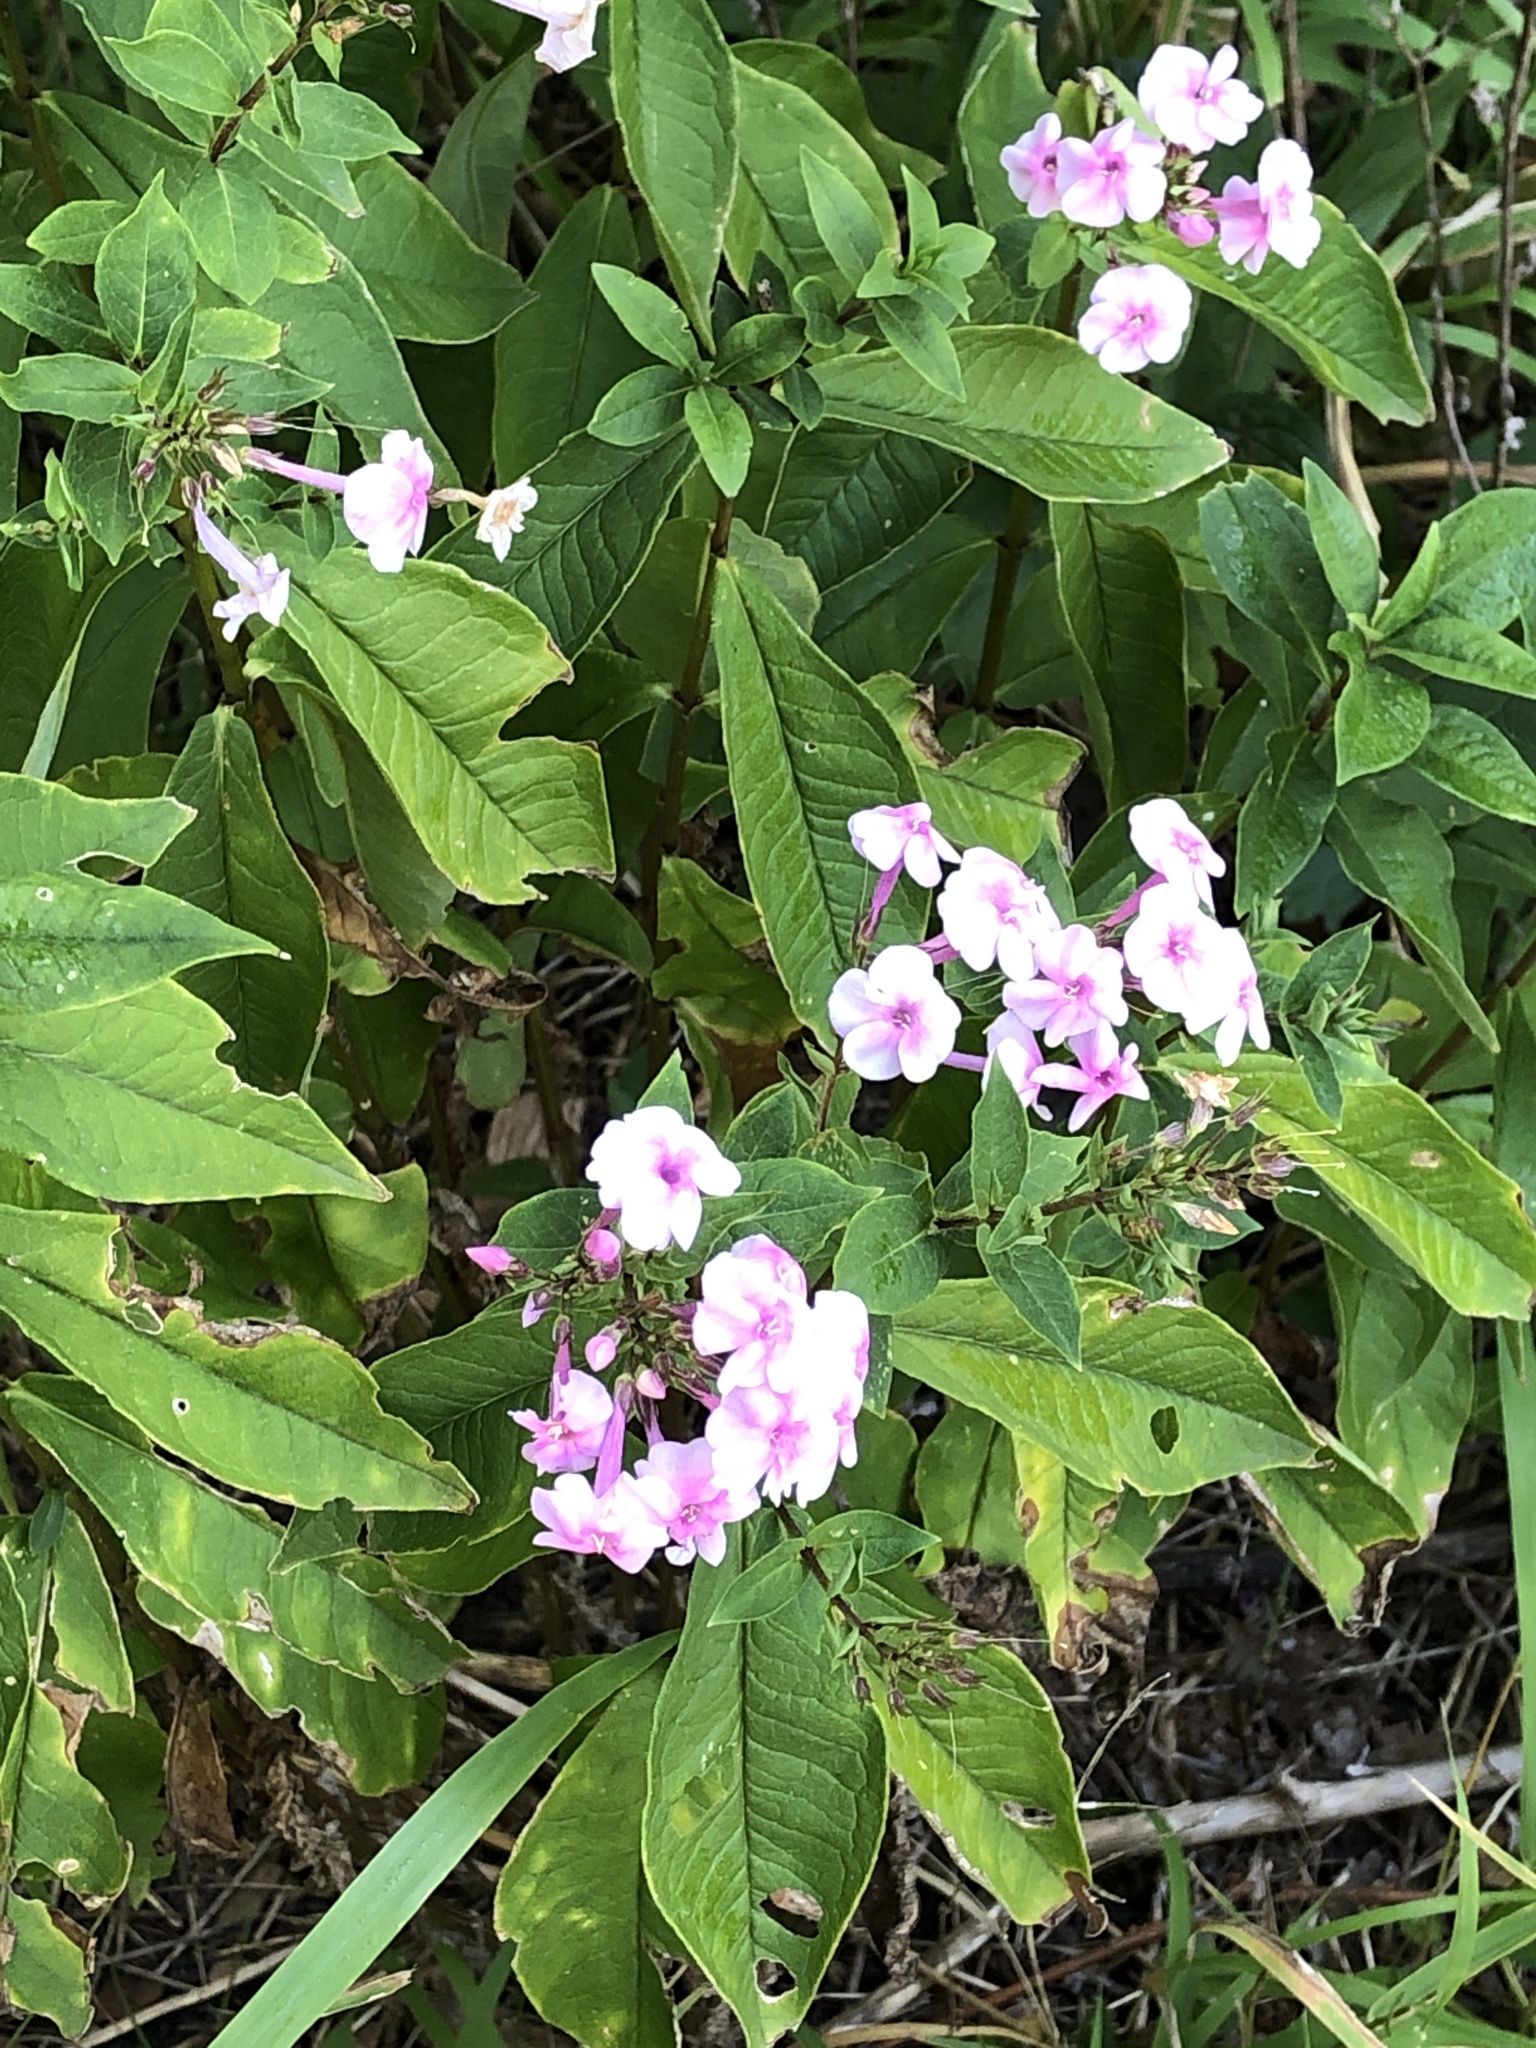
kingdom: Plantae
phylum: Tracheophyta
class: Magnoliopsida
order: Ericales
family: Polemoniaceae
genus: Phlox
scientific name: Phlox paniculata
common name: Fall phlox
